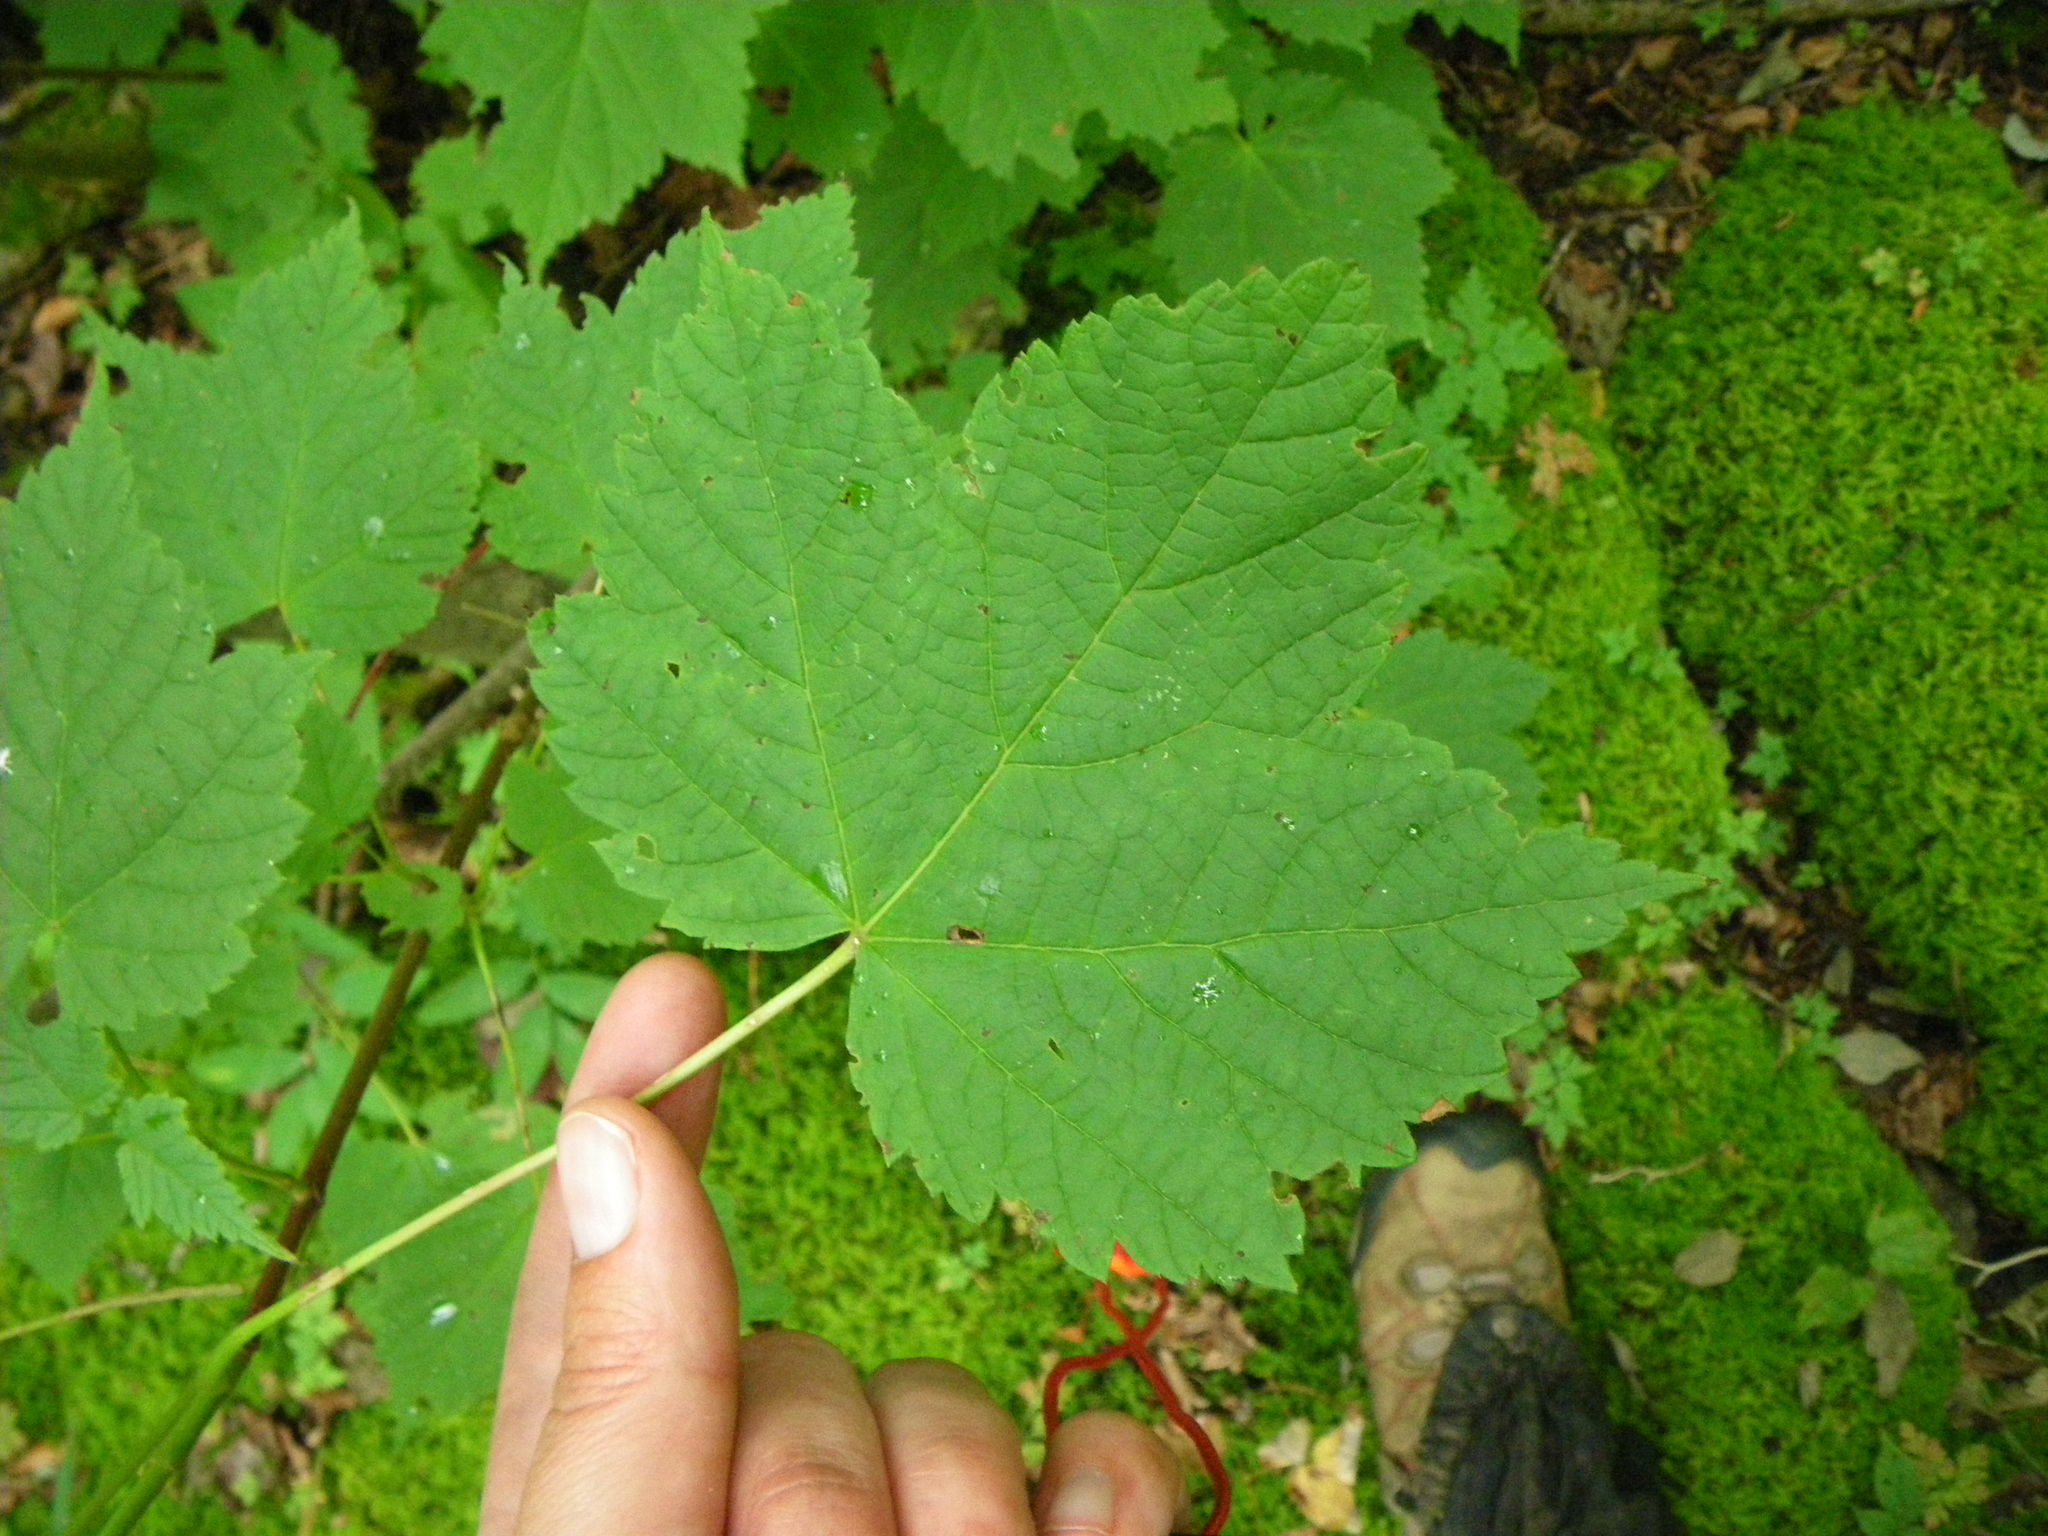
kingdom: Plantae
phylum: Tracheophyta
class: Magnoliopsida
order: Sapindales
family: Sapindaceae
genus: Acer
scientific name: Acer spicatum
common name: Mountain maple
